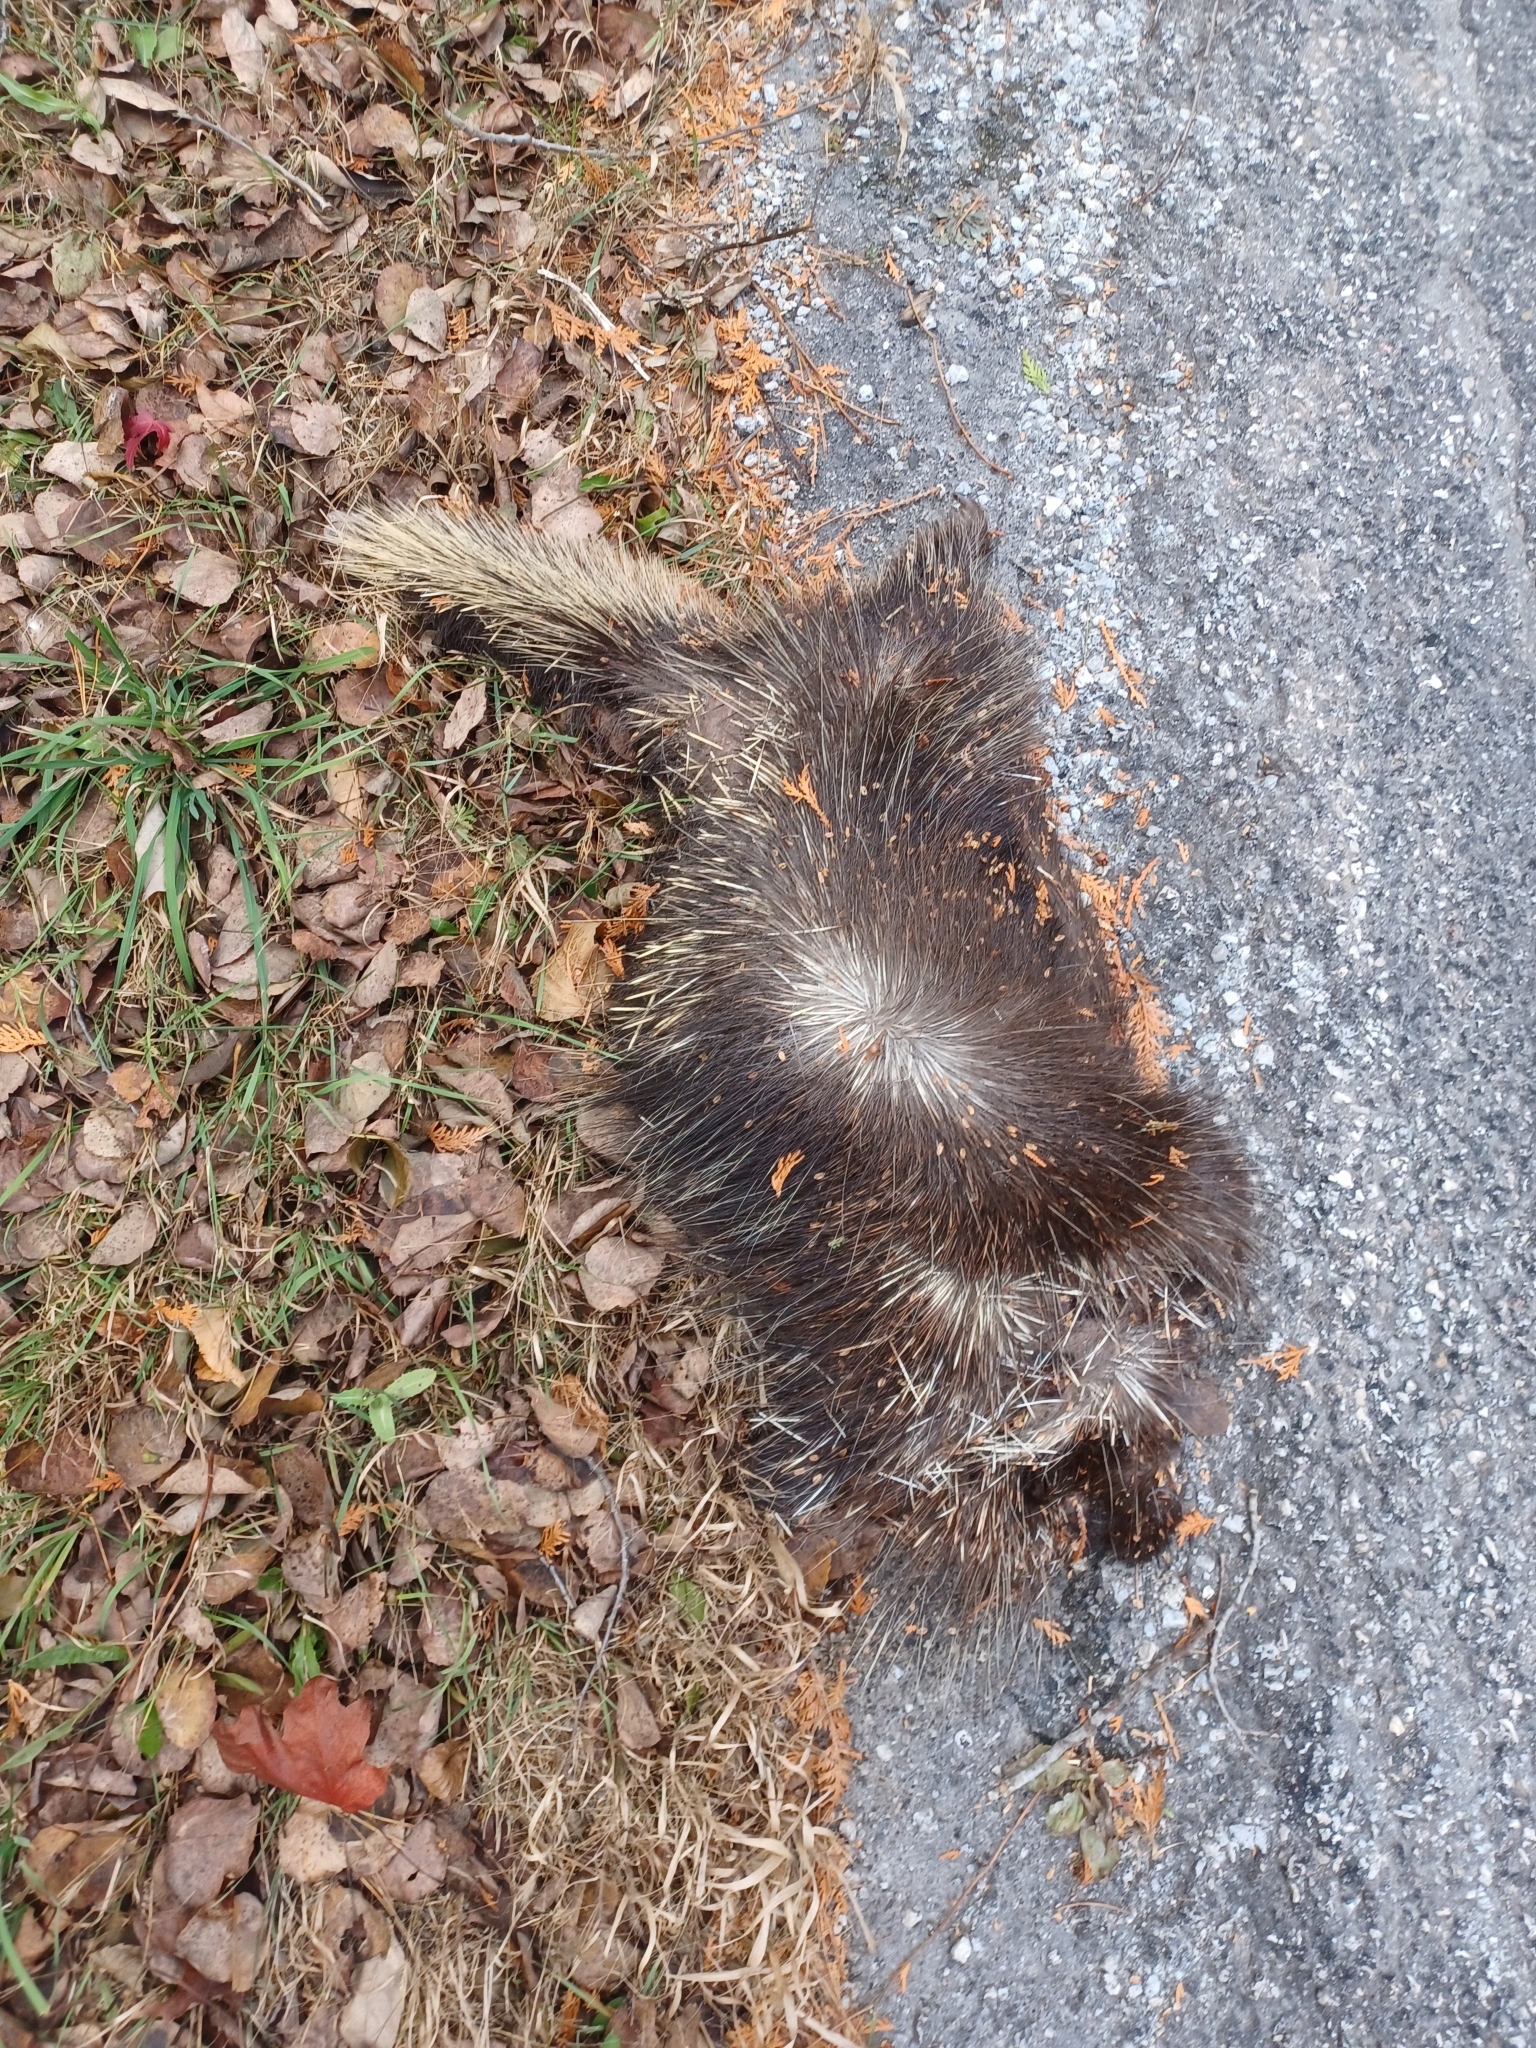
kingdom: Animalia
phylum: Chordata
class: Mammalia
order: Rodentia
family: Erethizontidae
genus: Erethizon
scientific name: Erethizon dorsatus
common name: North american porcupine
